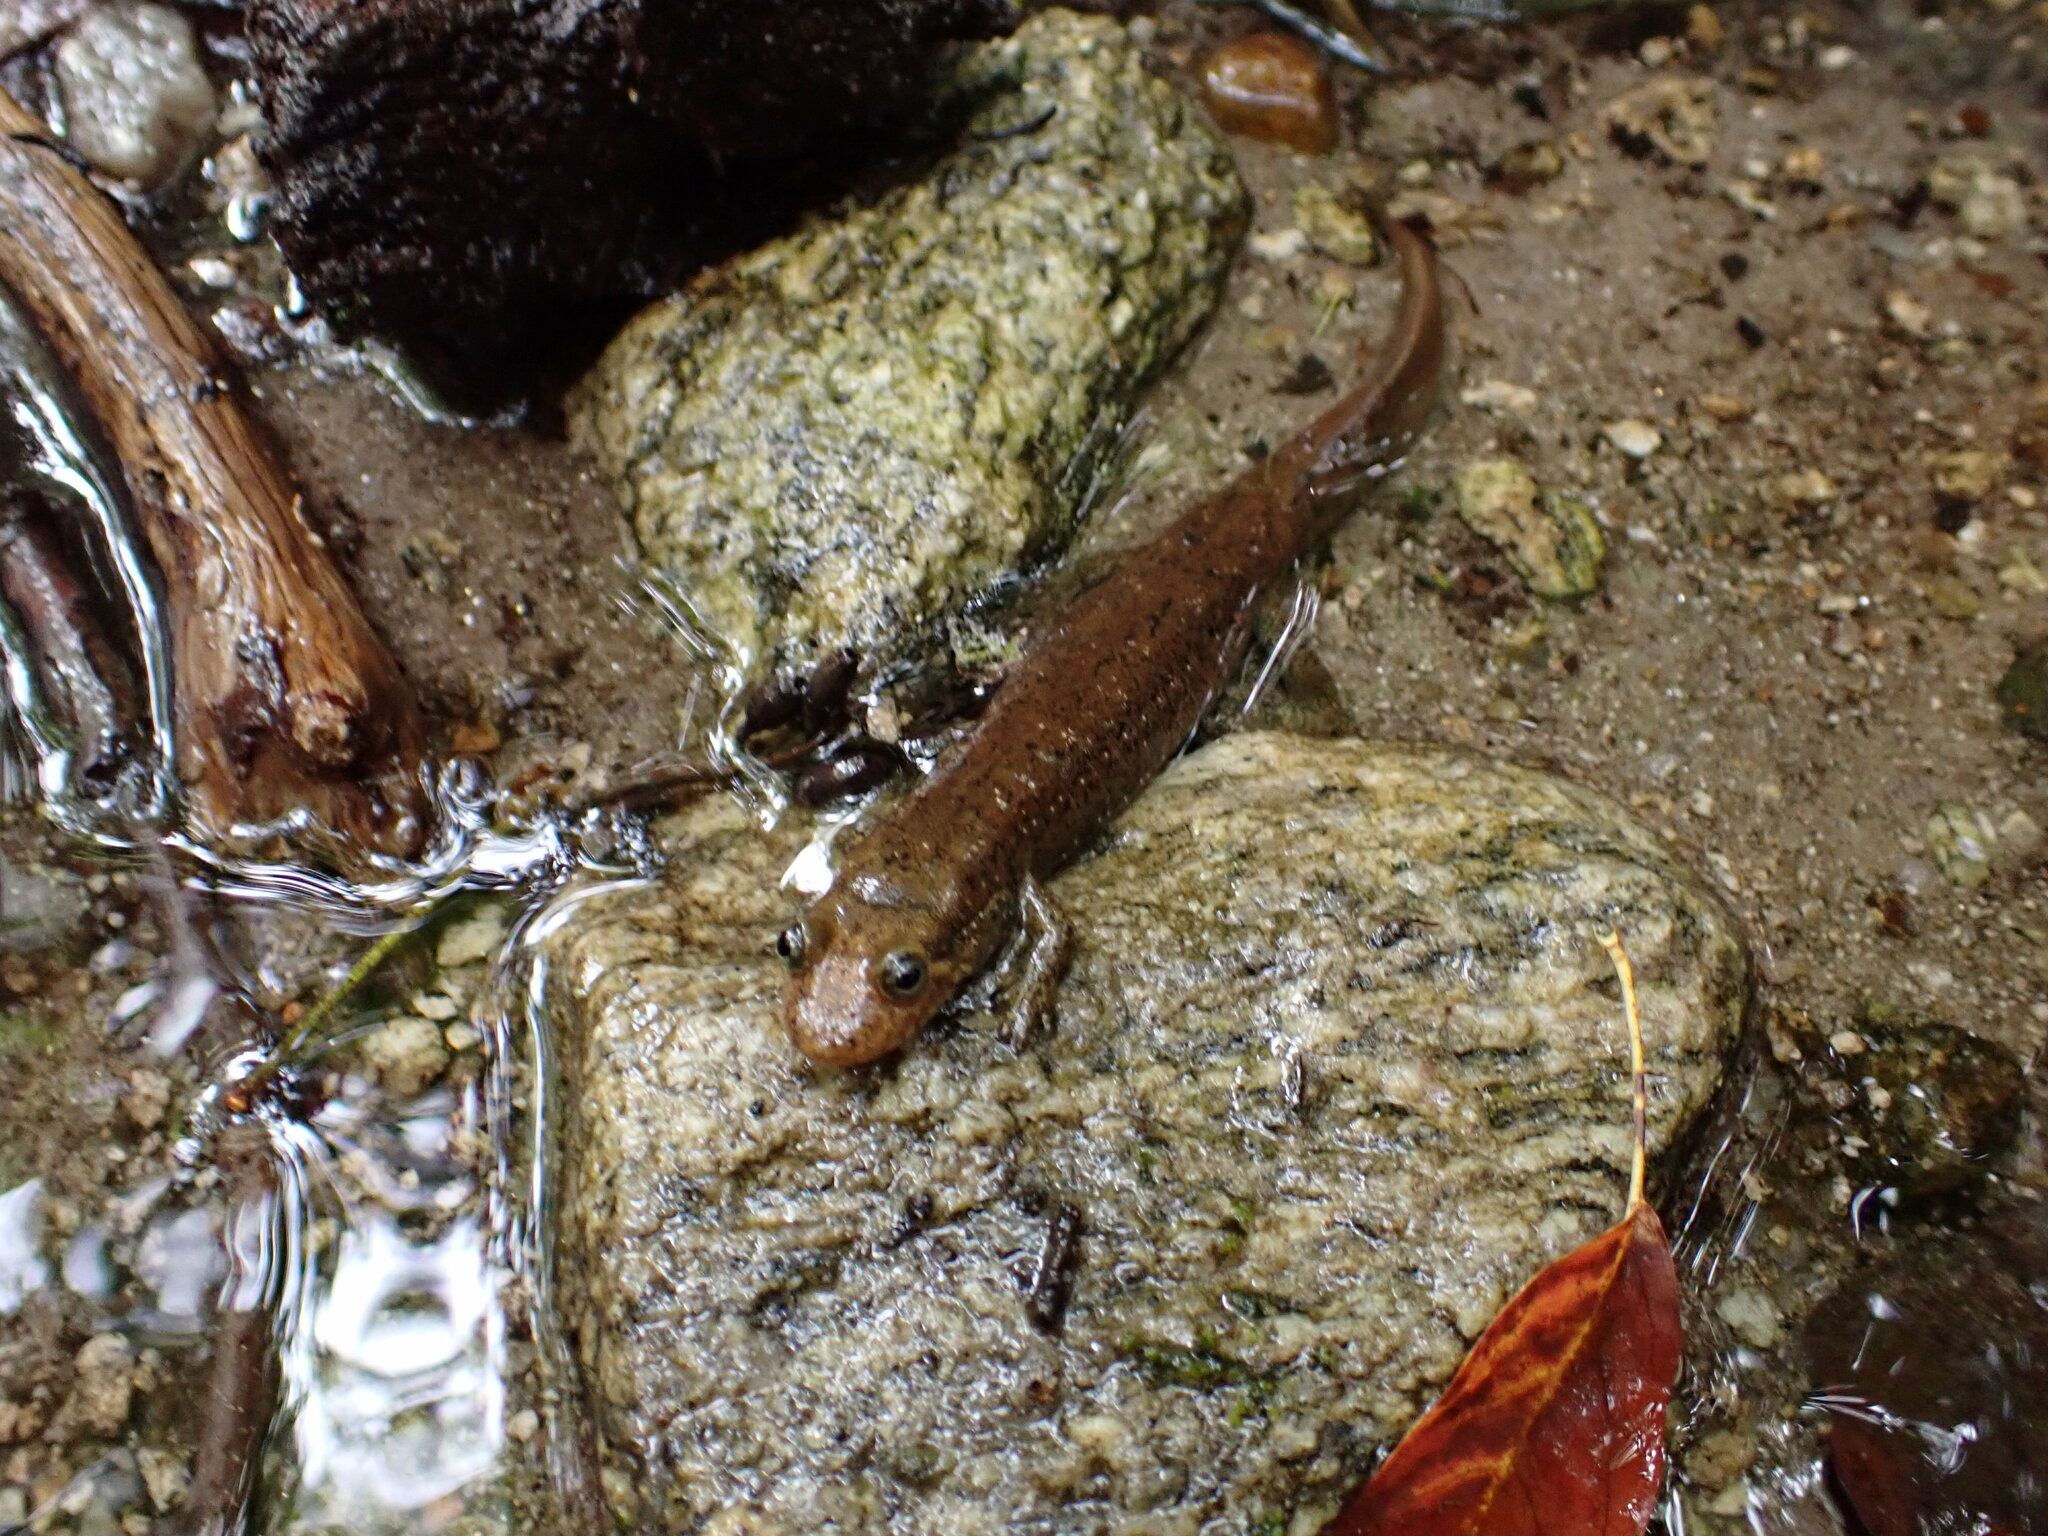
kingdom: Animalia
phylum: Chordata
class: Amphibia
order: Caudata
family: Plethodontidae
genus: Desmognathus
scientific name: Desmognathus
